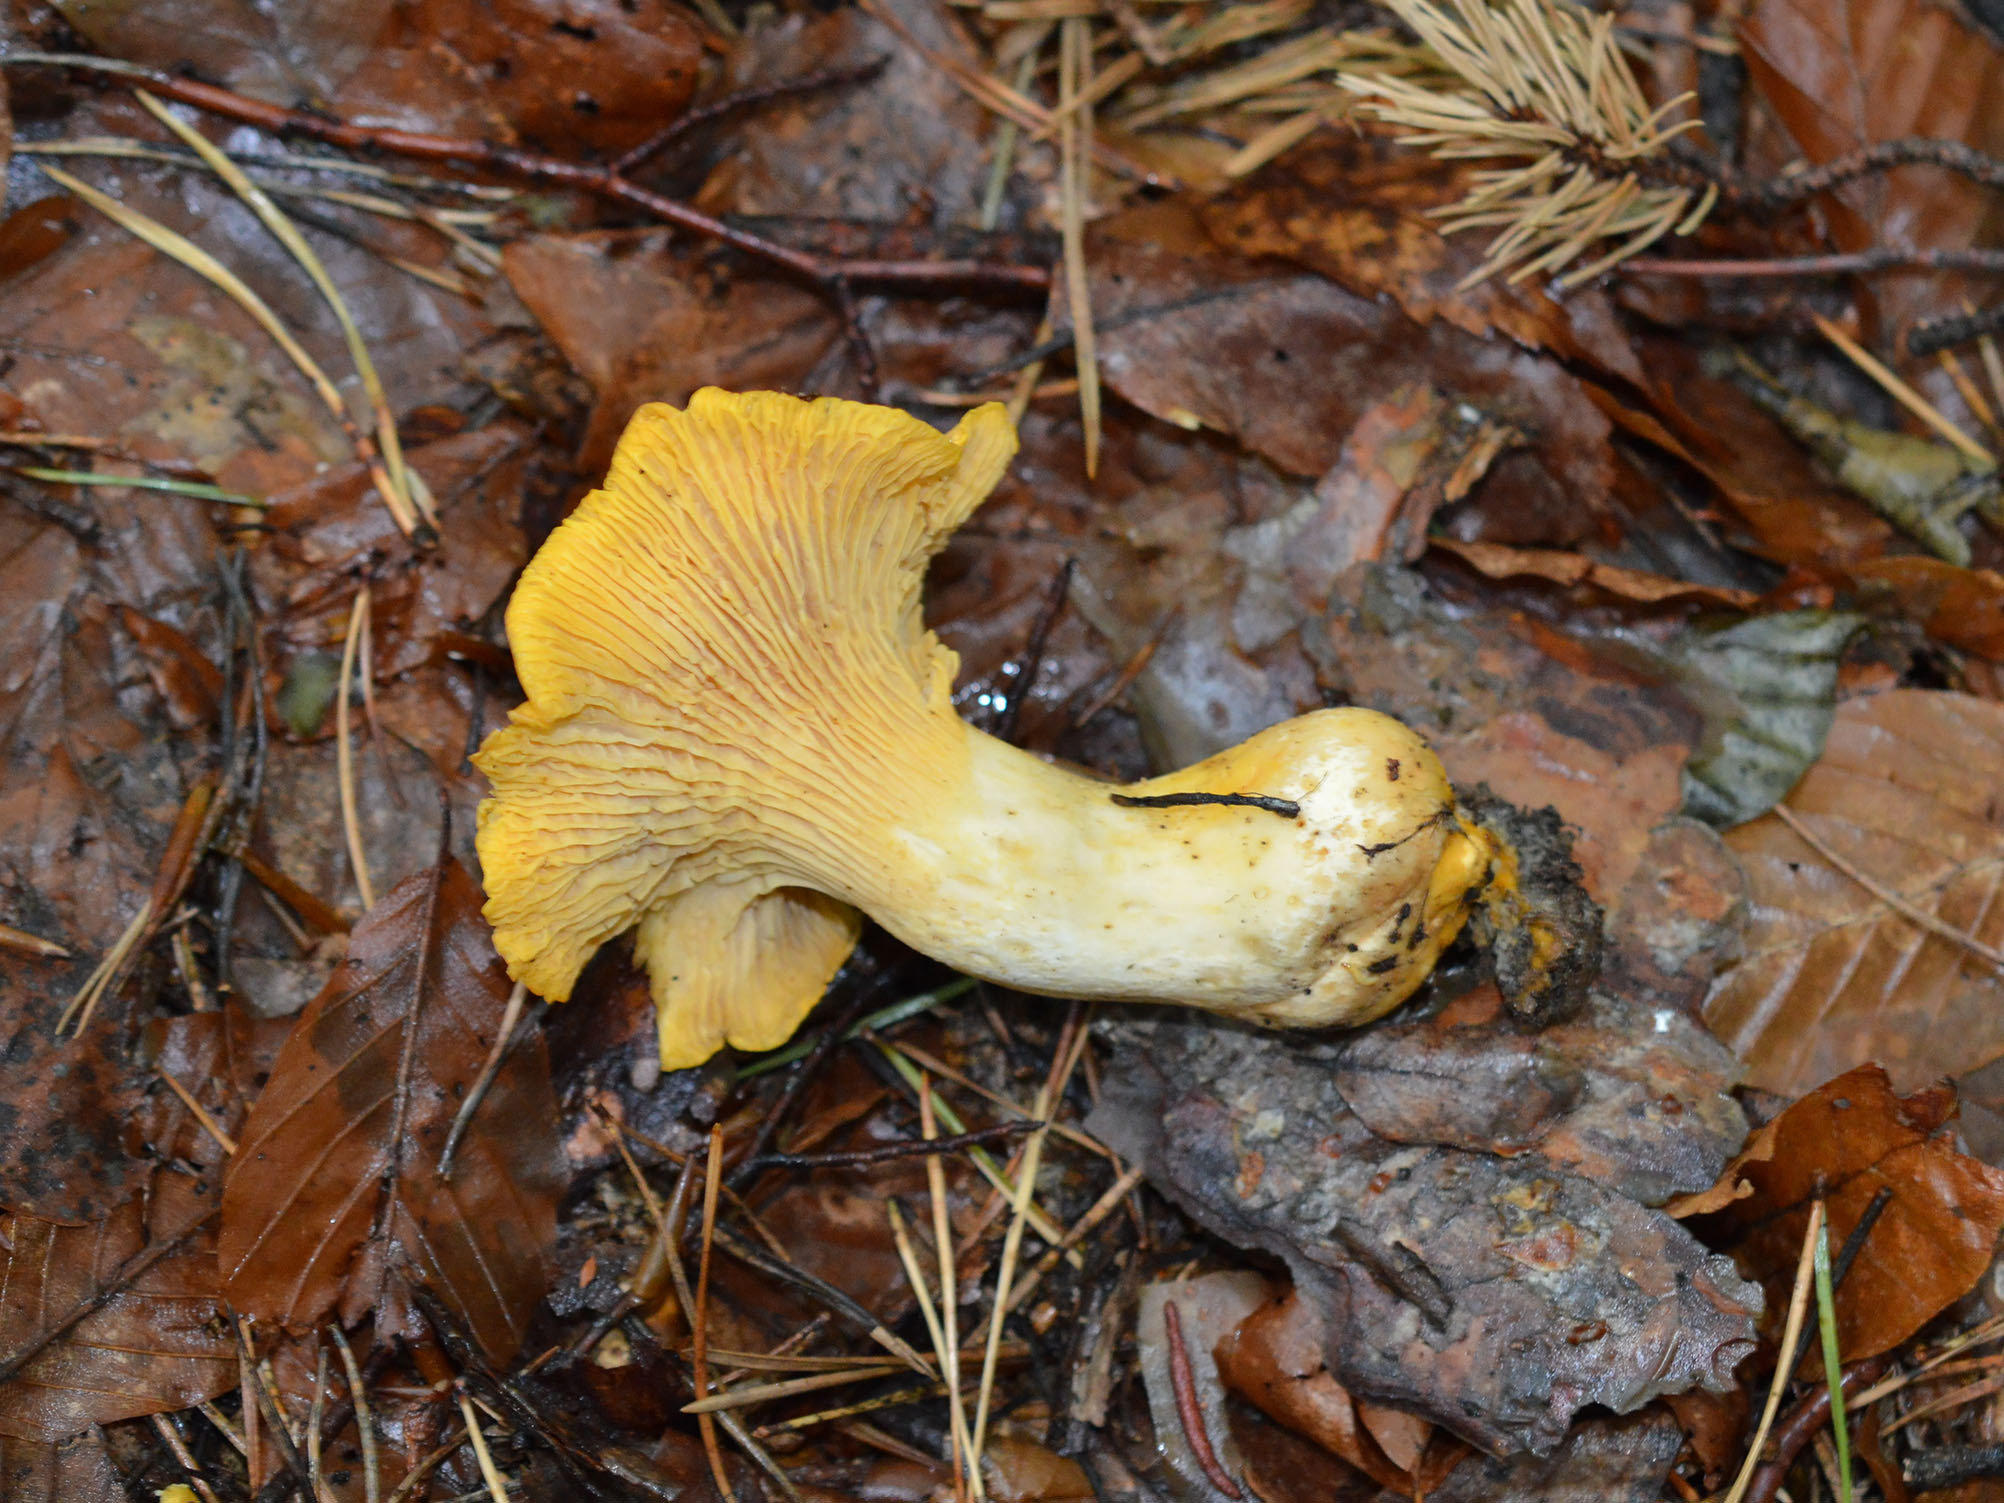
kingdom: Fungi
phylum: Basidiomycota
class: Agaricomycetes
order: Cantharellales
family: Hydnaceae
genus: Cantharellus
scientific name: Cantharellus cibarius
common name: Chanterelle
